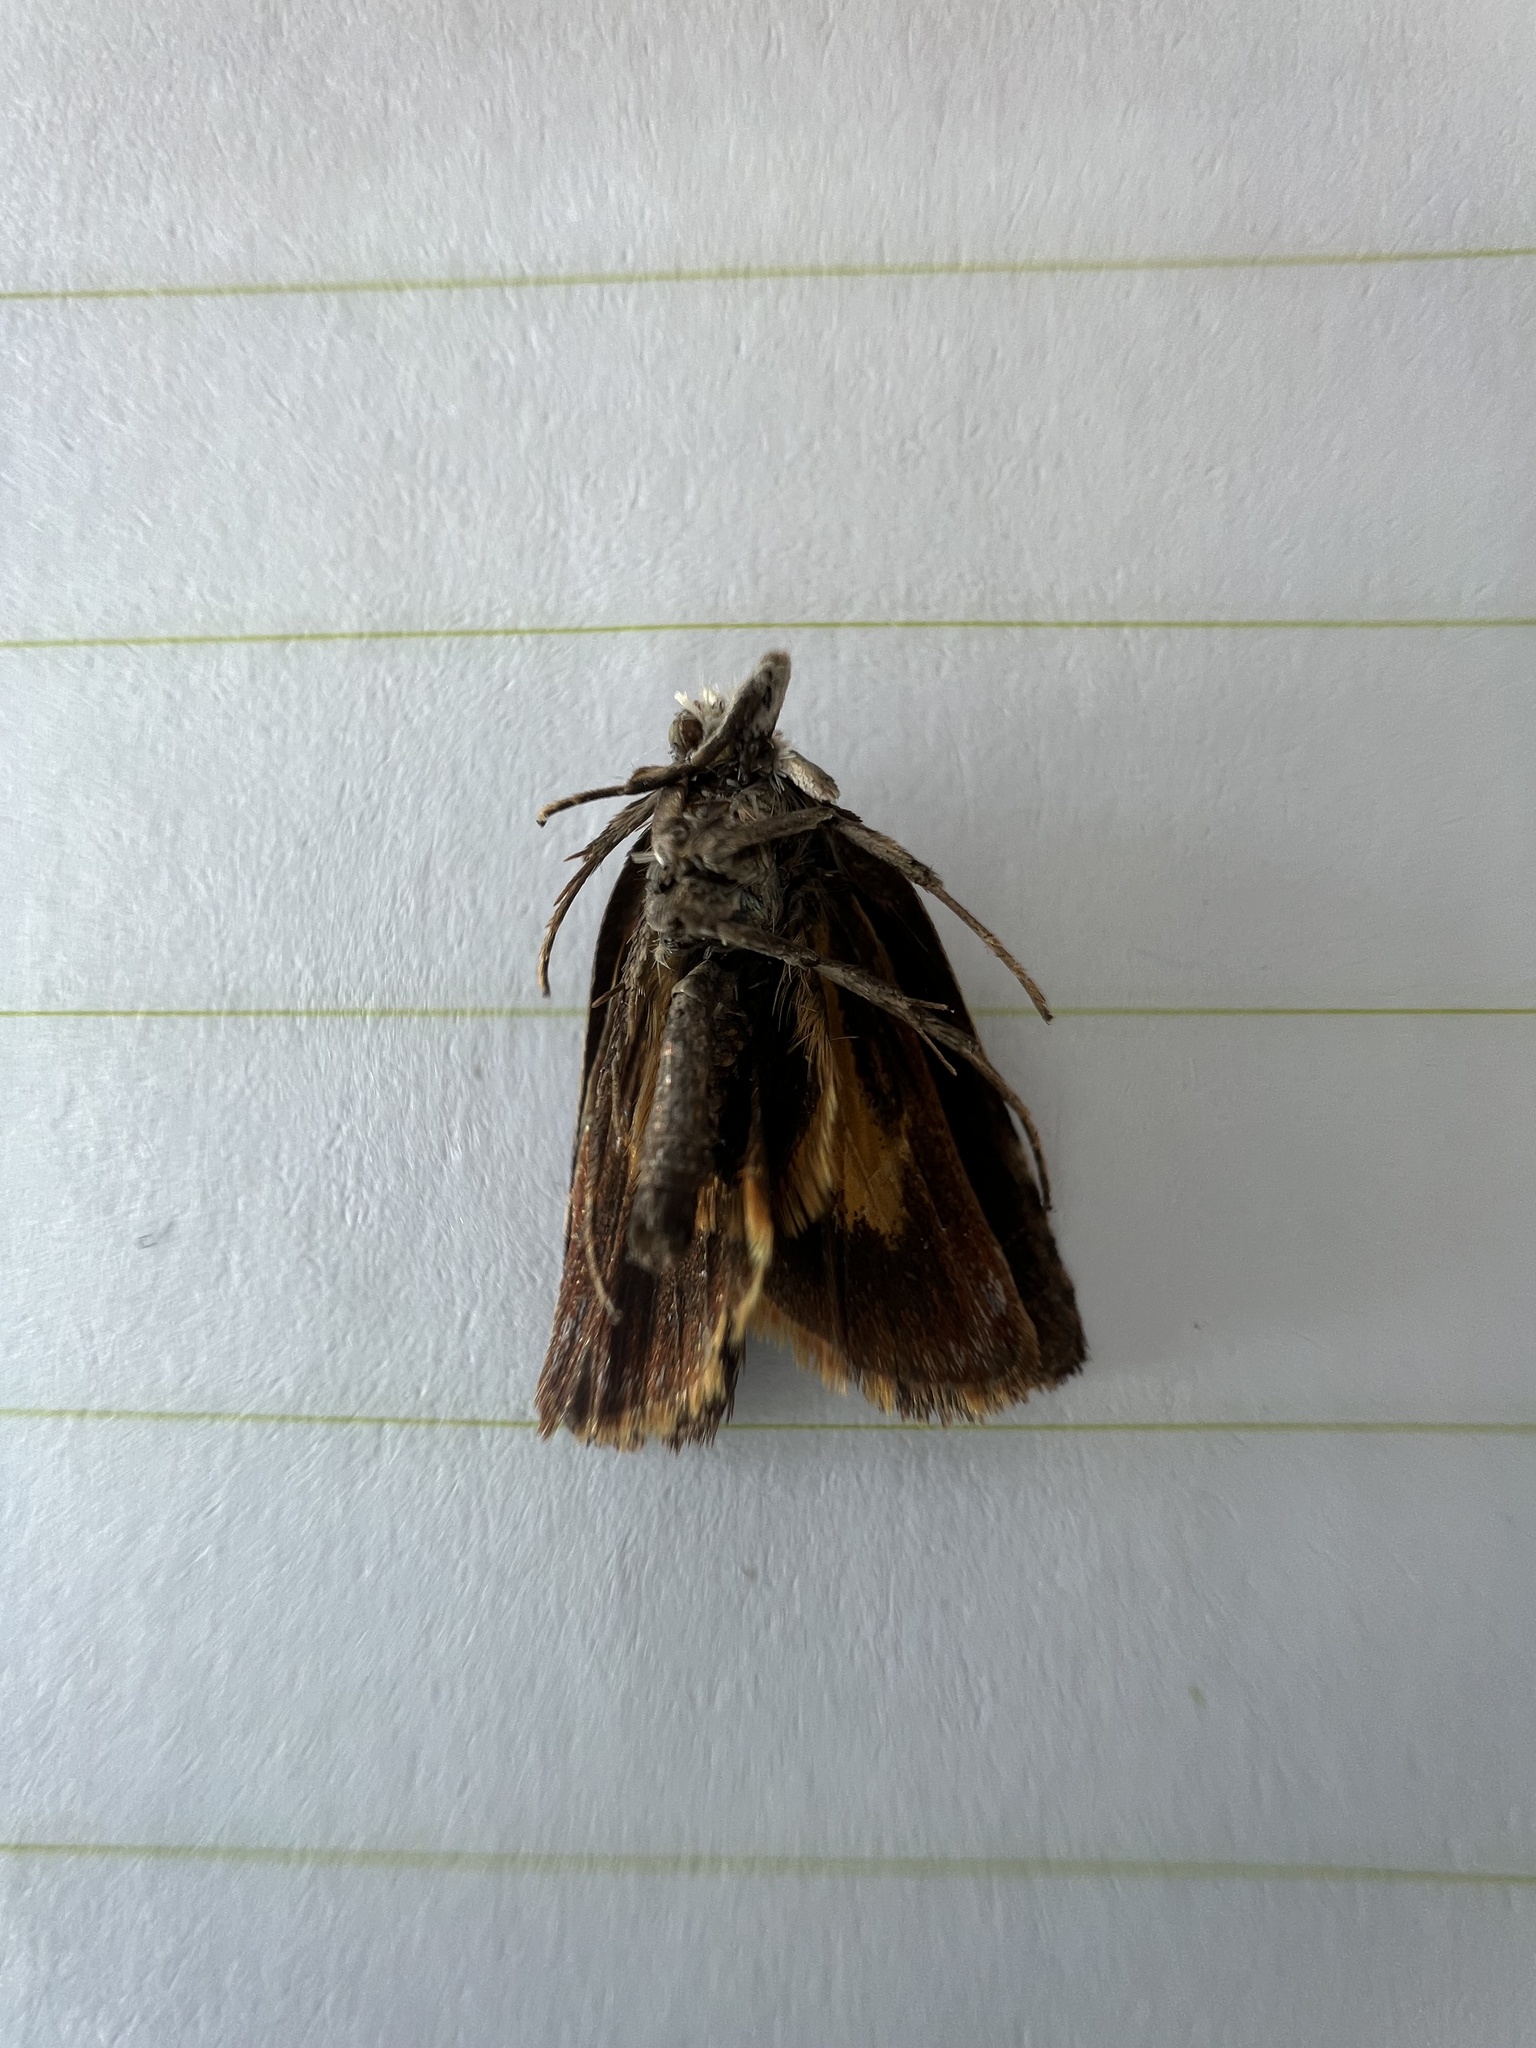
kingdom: Animalia
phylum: Arthropoda
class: Insecta
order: Lepidoptera
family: Oecophoridae
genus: Hierodoris
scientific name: Hierodoris
